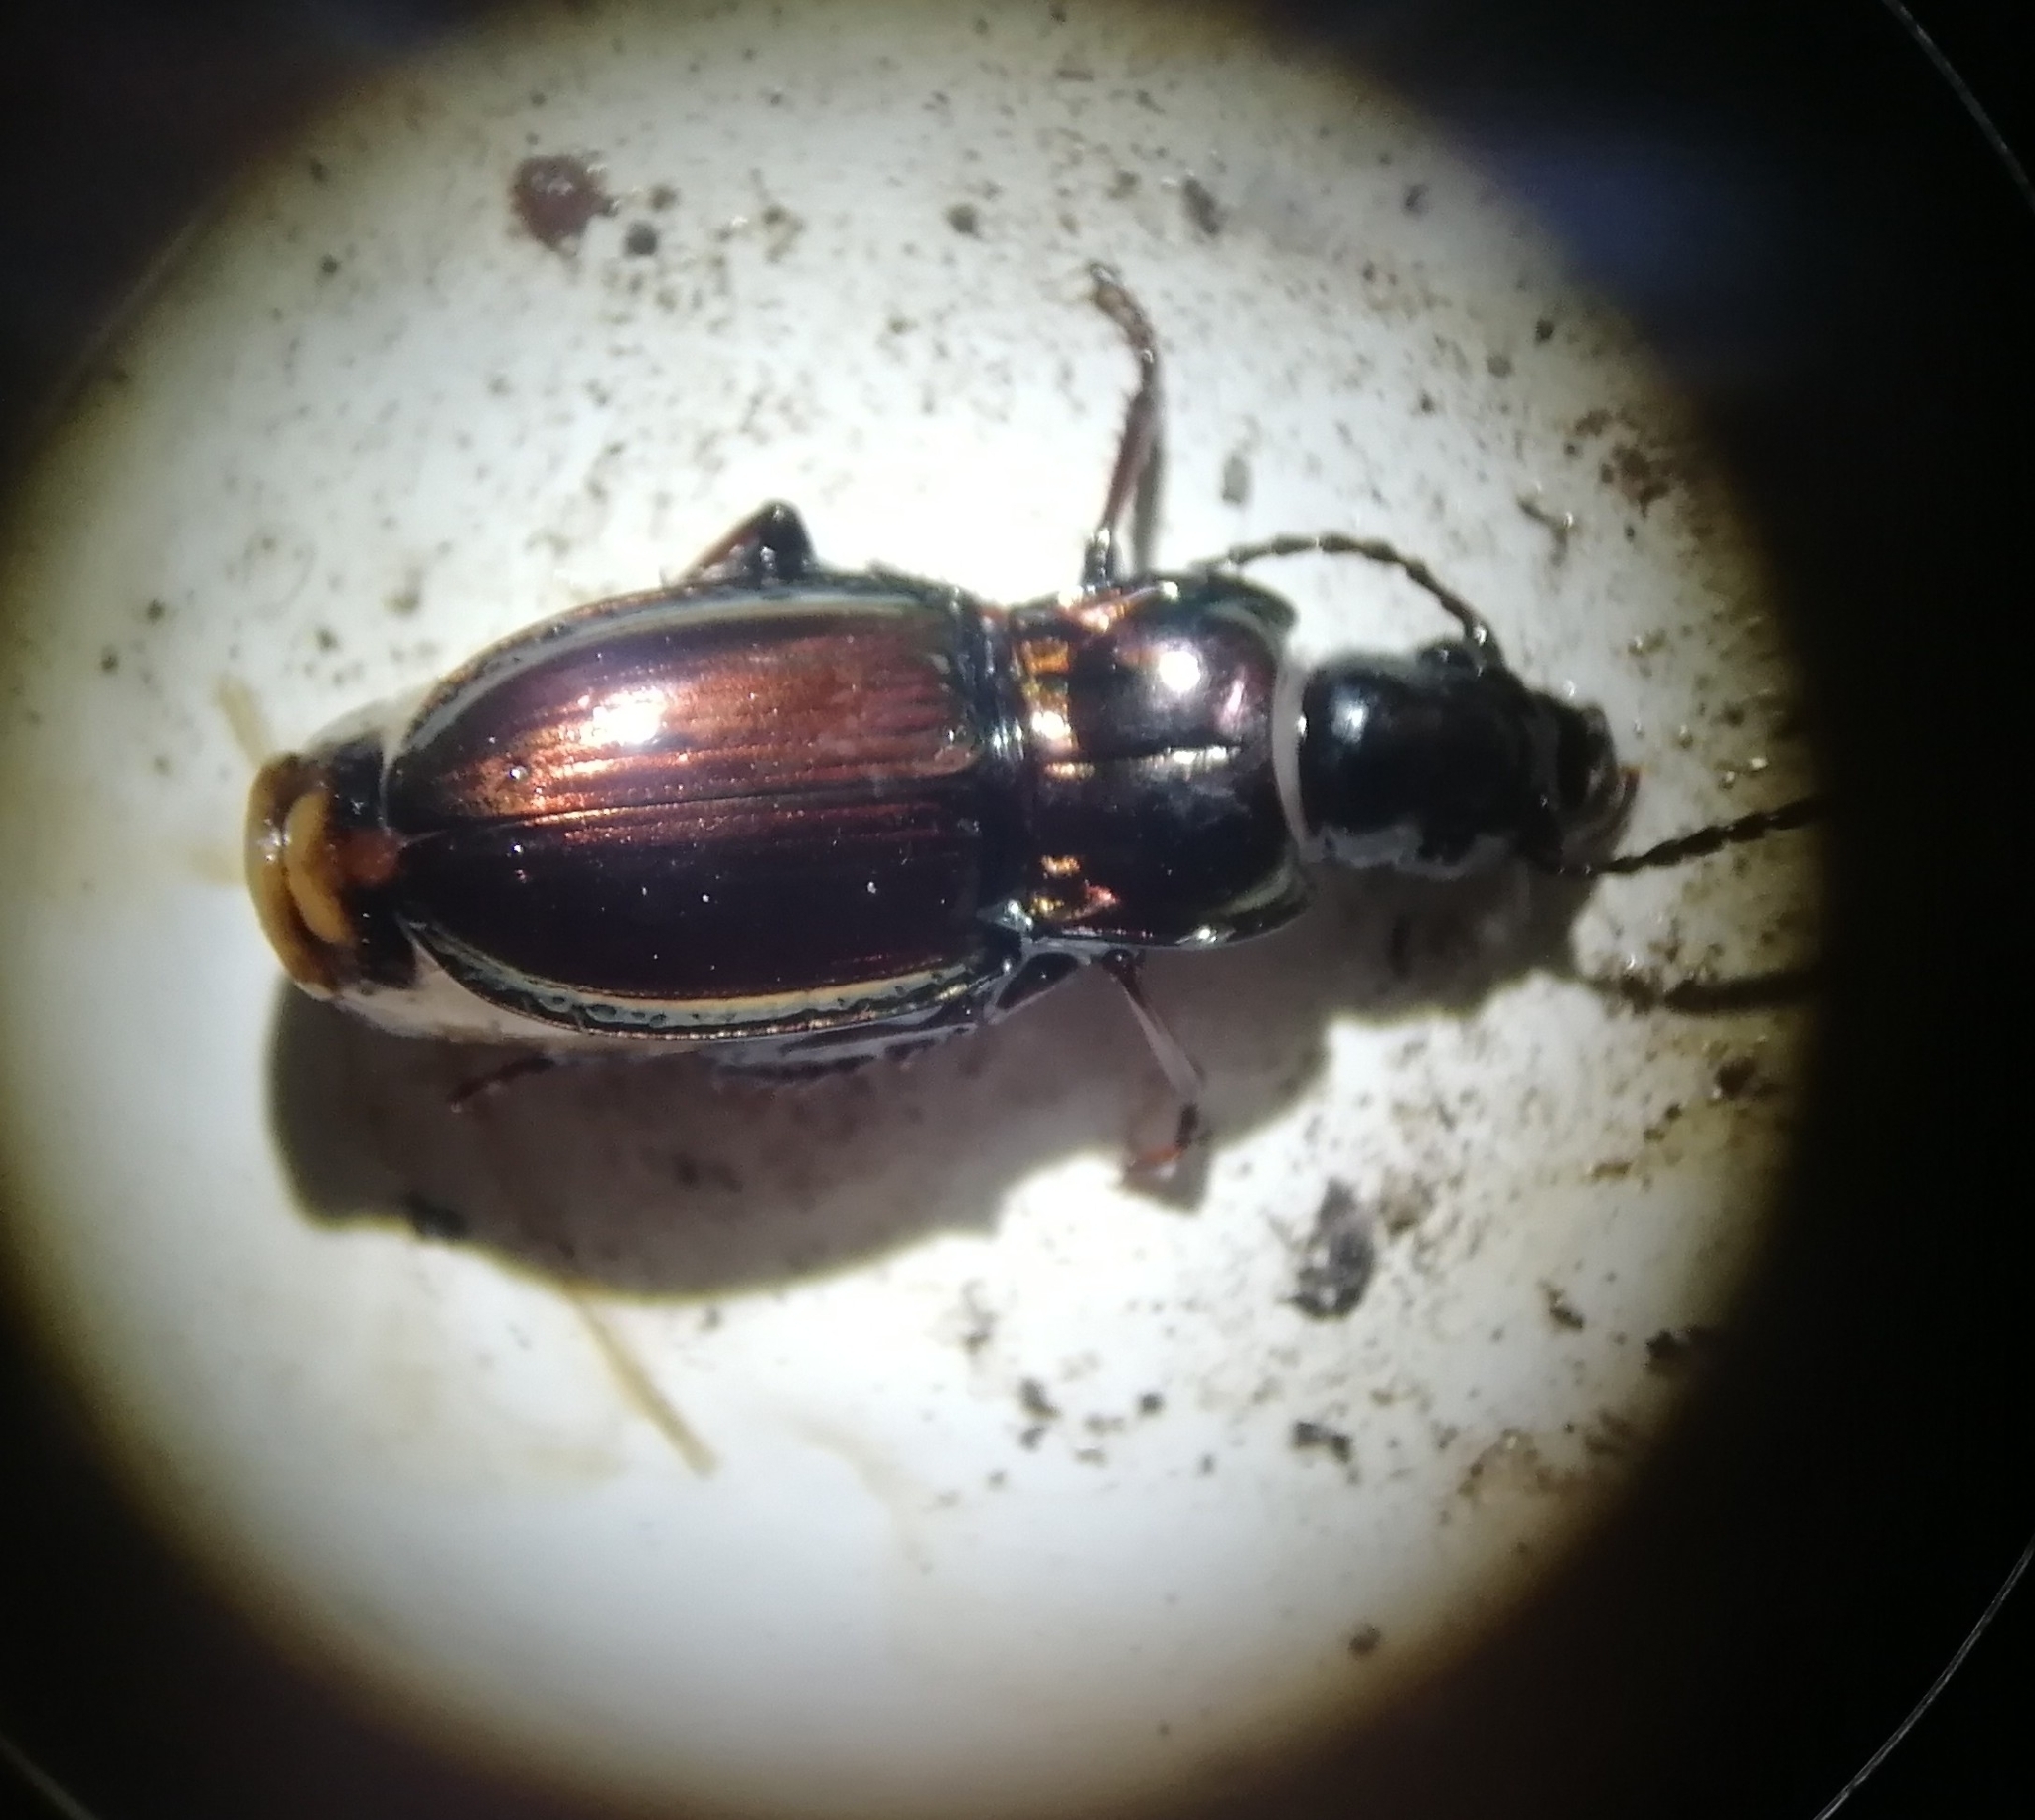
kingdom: Animalia
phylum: Arthropoda
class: Insecta
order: Coleoptera
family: Carabidae
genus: Pterostichus
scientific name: Pterostichus burmeisteri
